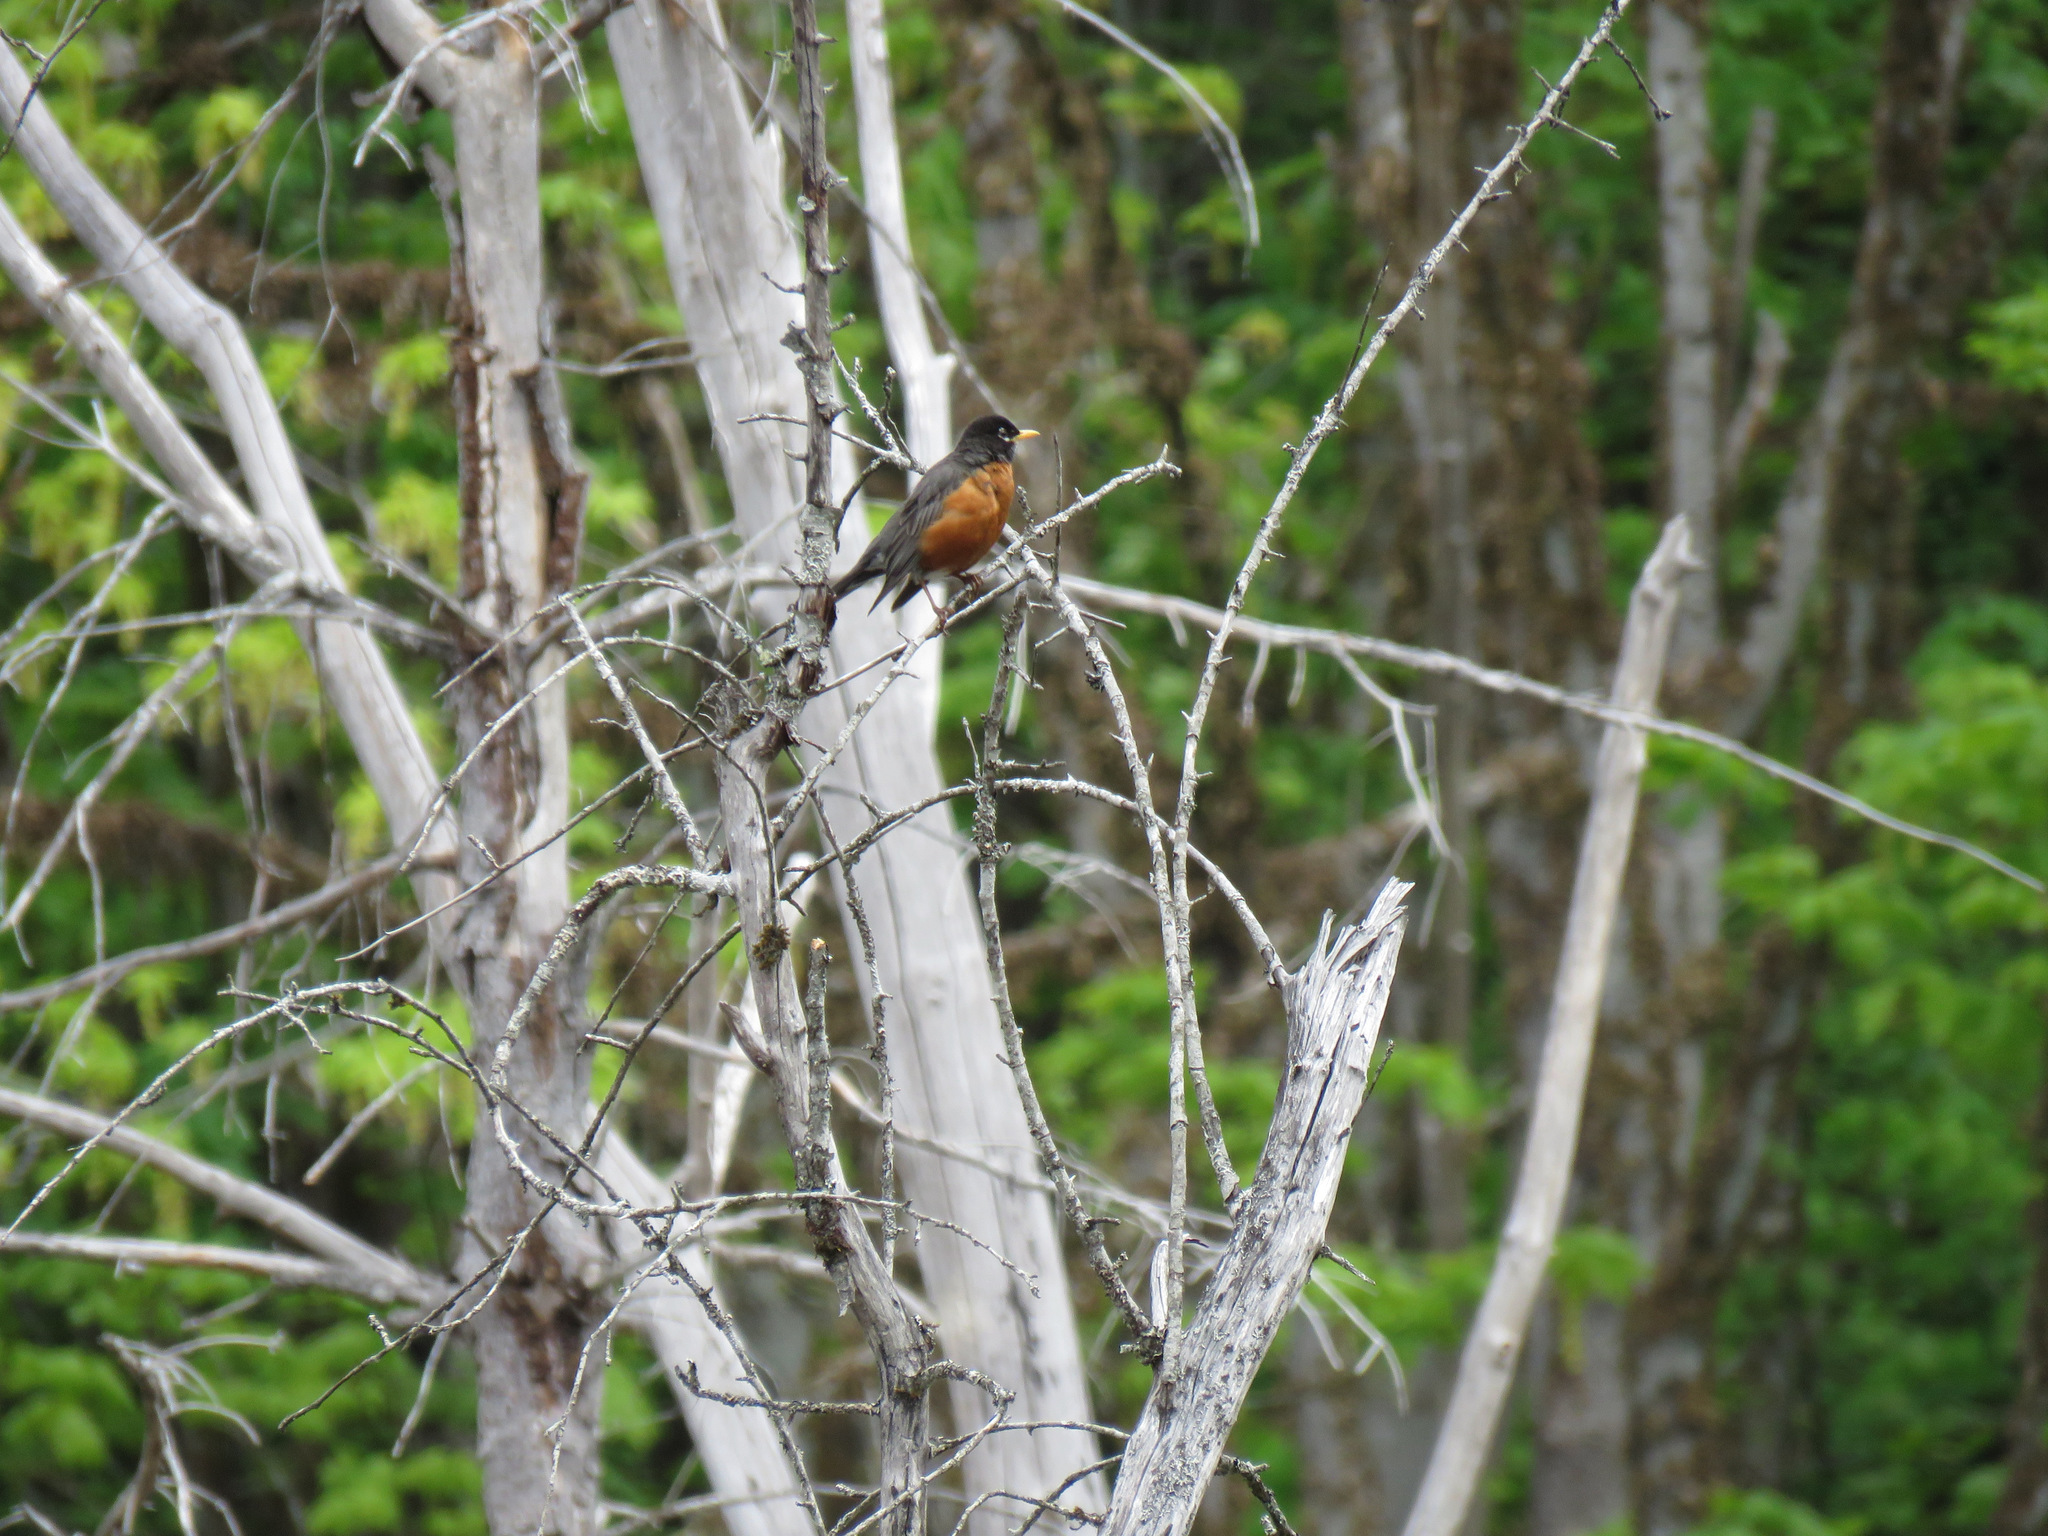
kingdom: Animalia
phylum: Chordata
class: Aves
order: Passeriformes
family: Turdidae
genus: Turdus
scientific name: Turdus migratorius
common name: American robin
